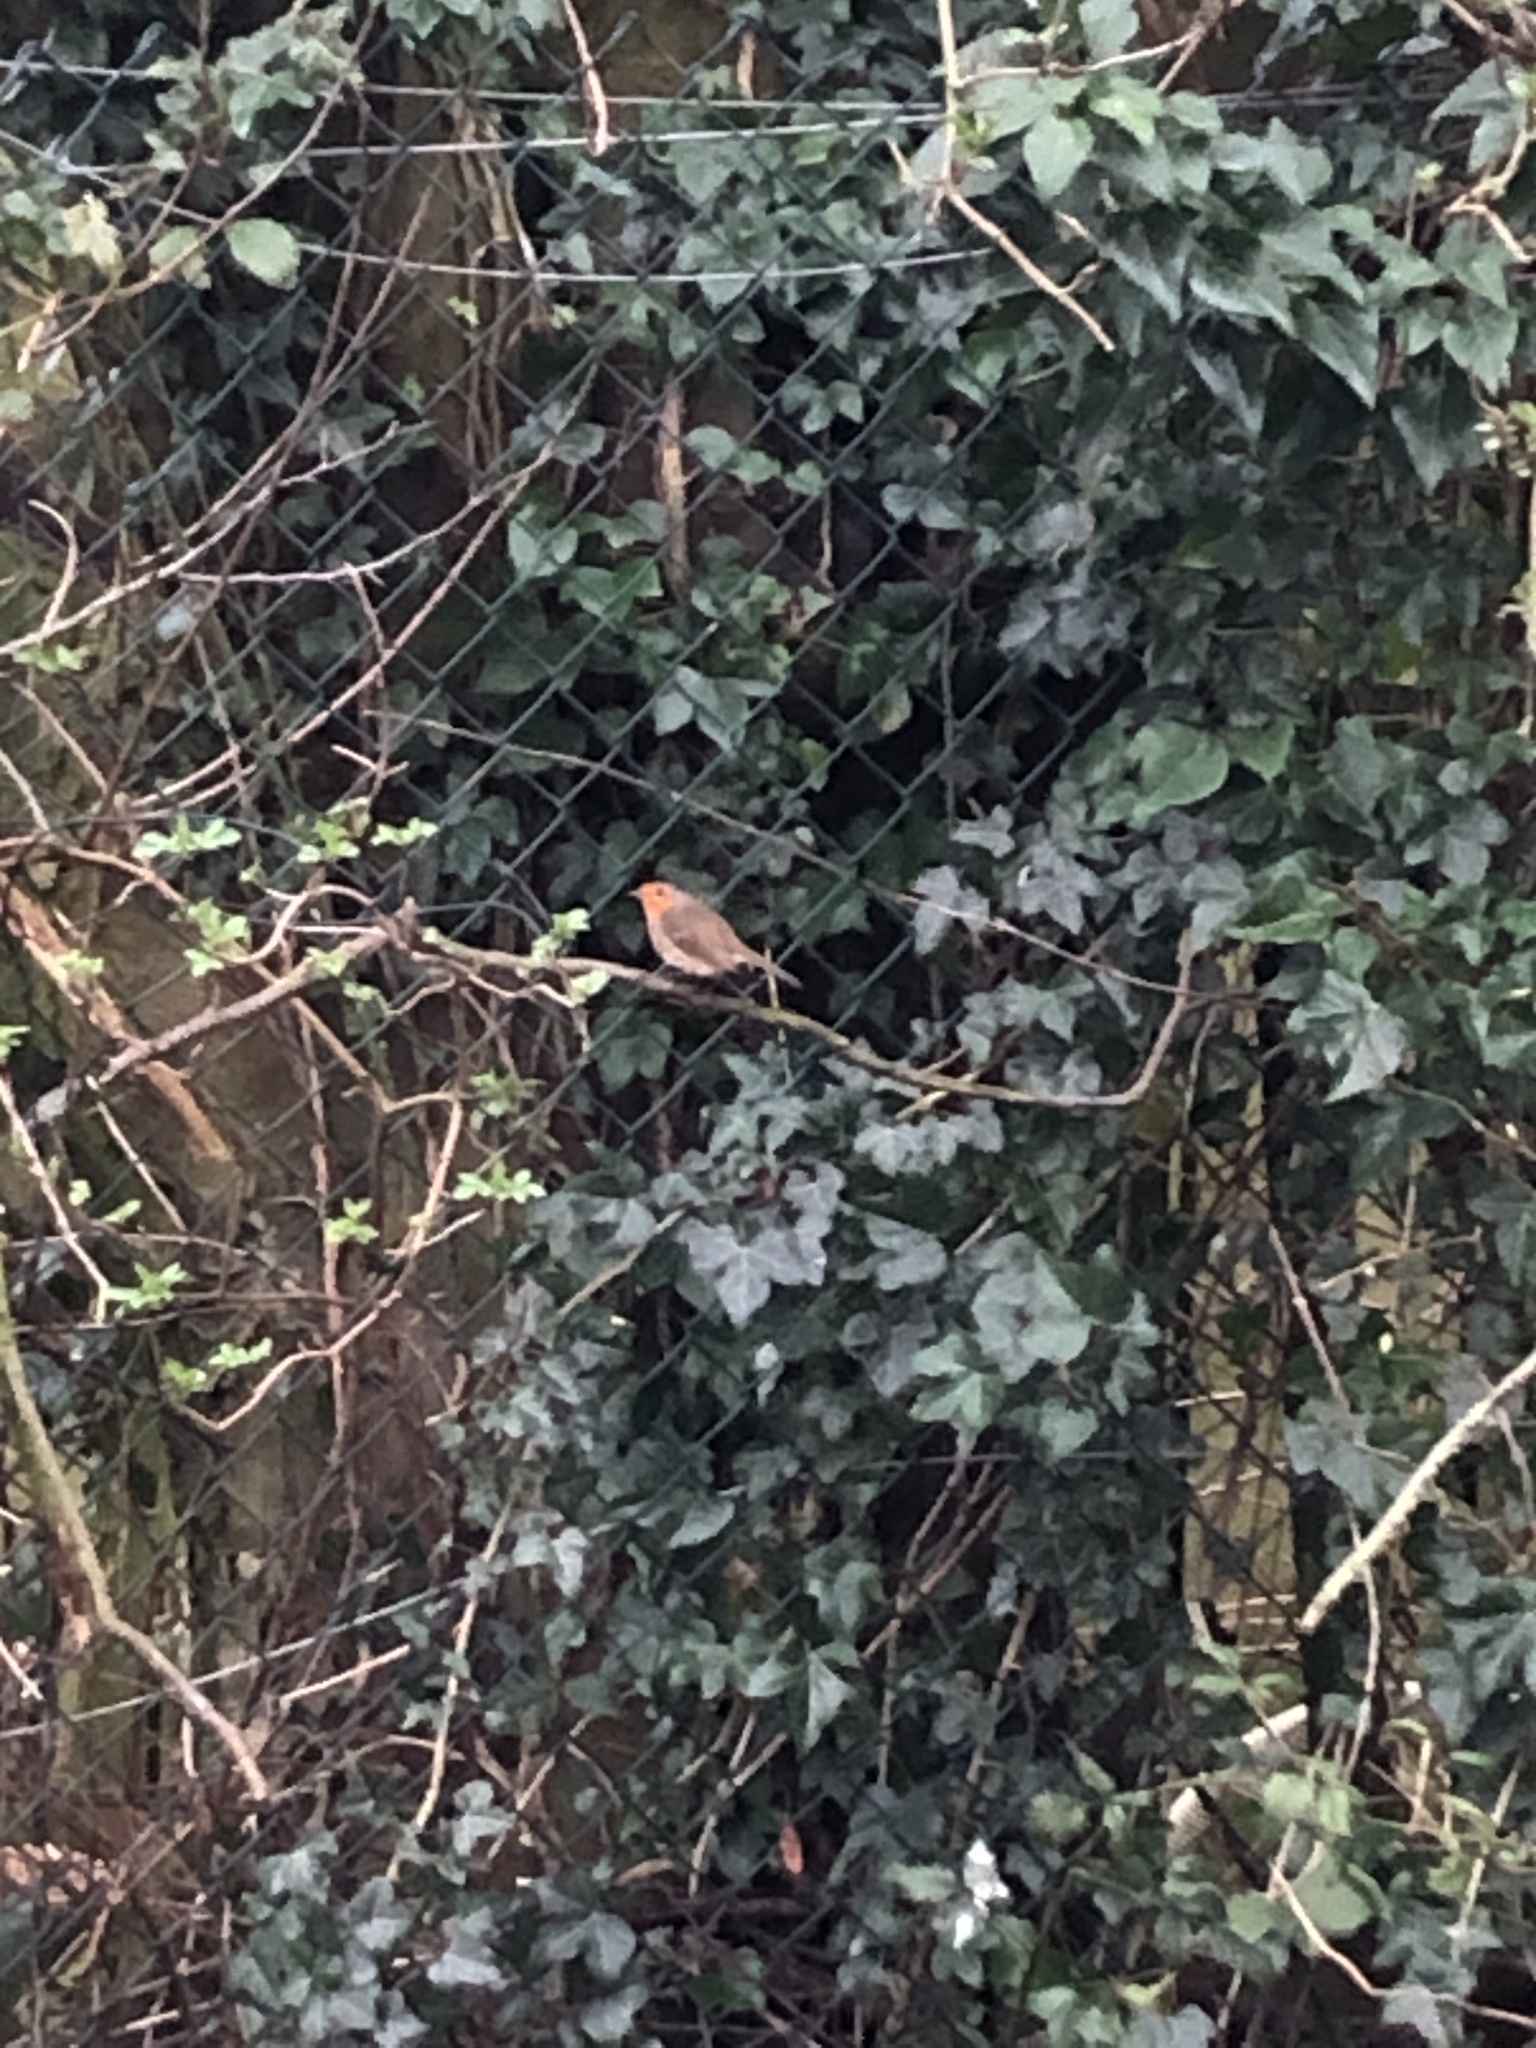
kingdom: Animalia
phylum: Chordata
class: Aves
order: Passeriformes
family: Muscicapidae
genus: Erithacus
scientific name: Erithacus rubecula
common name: European robin
